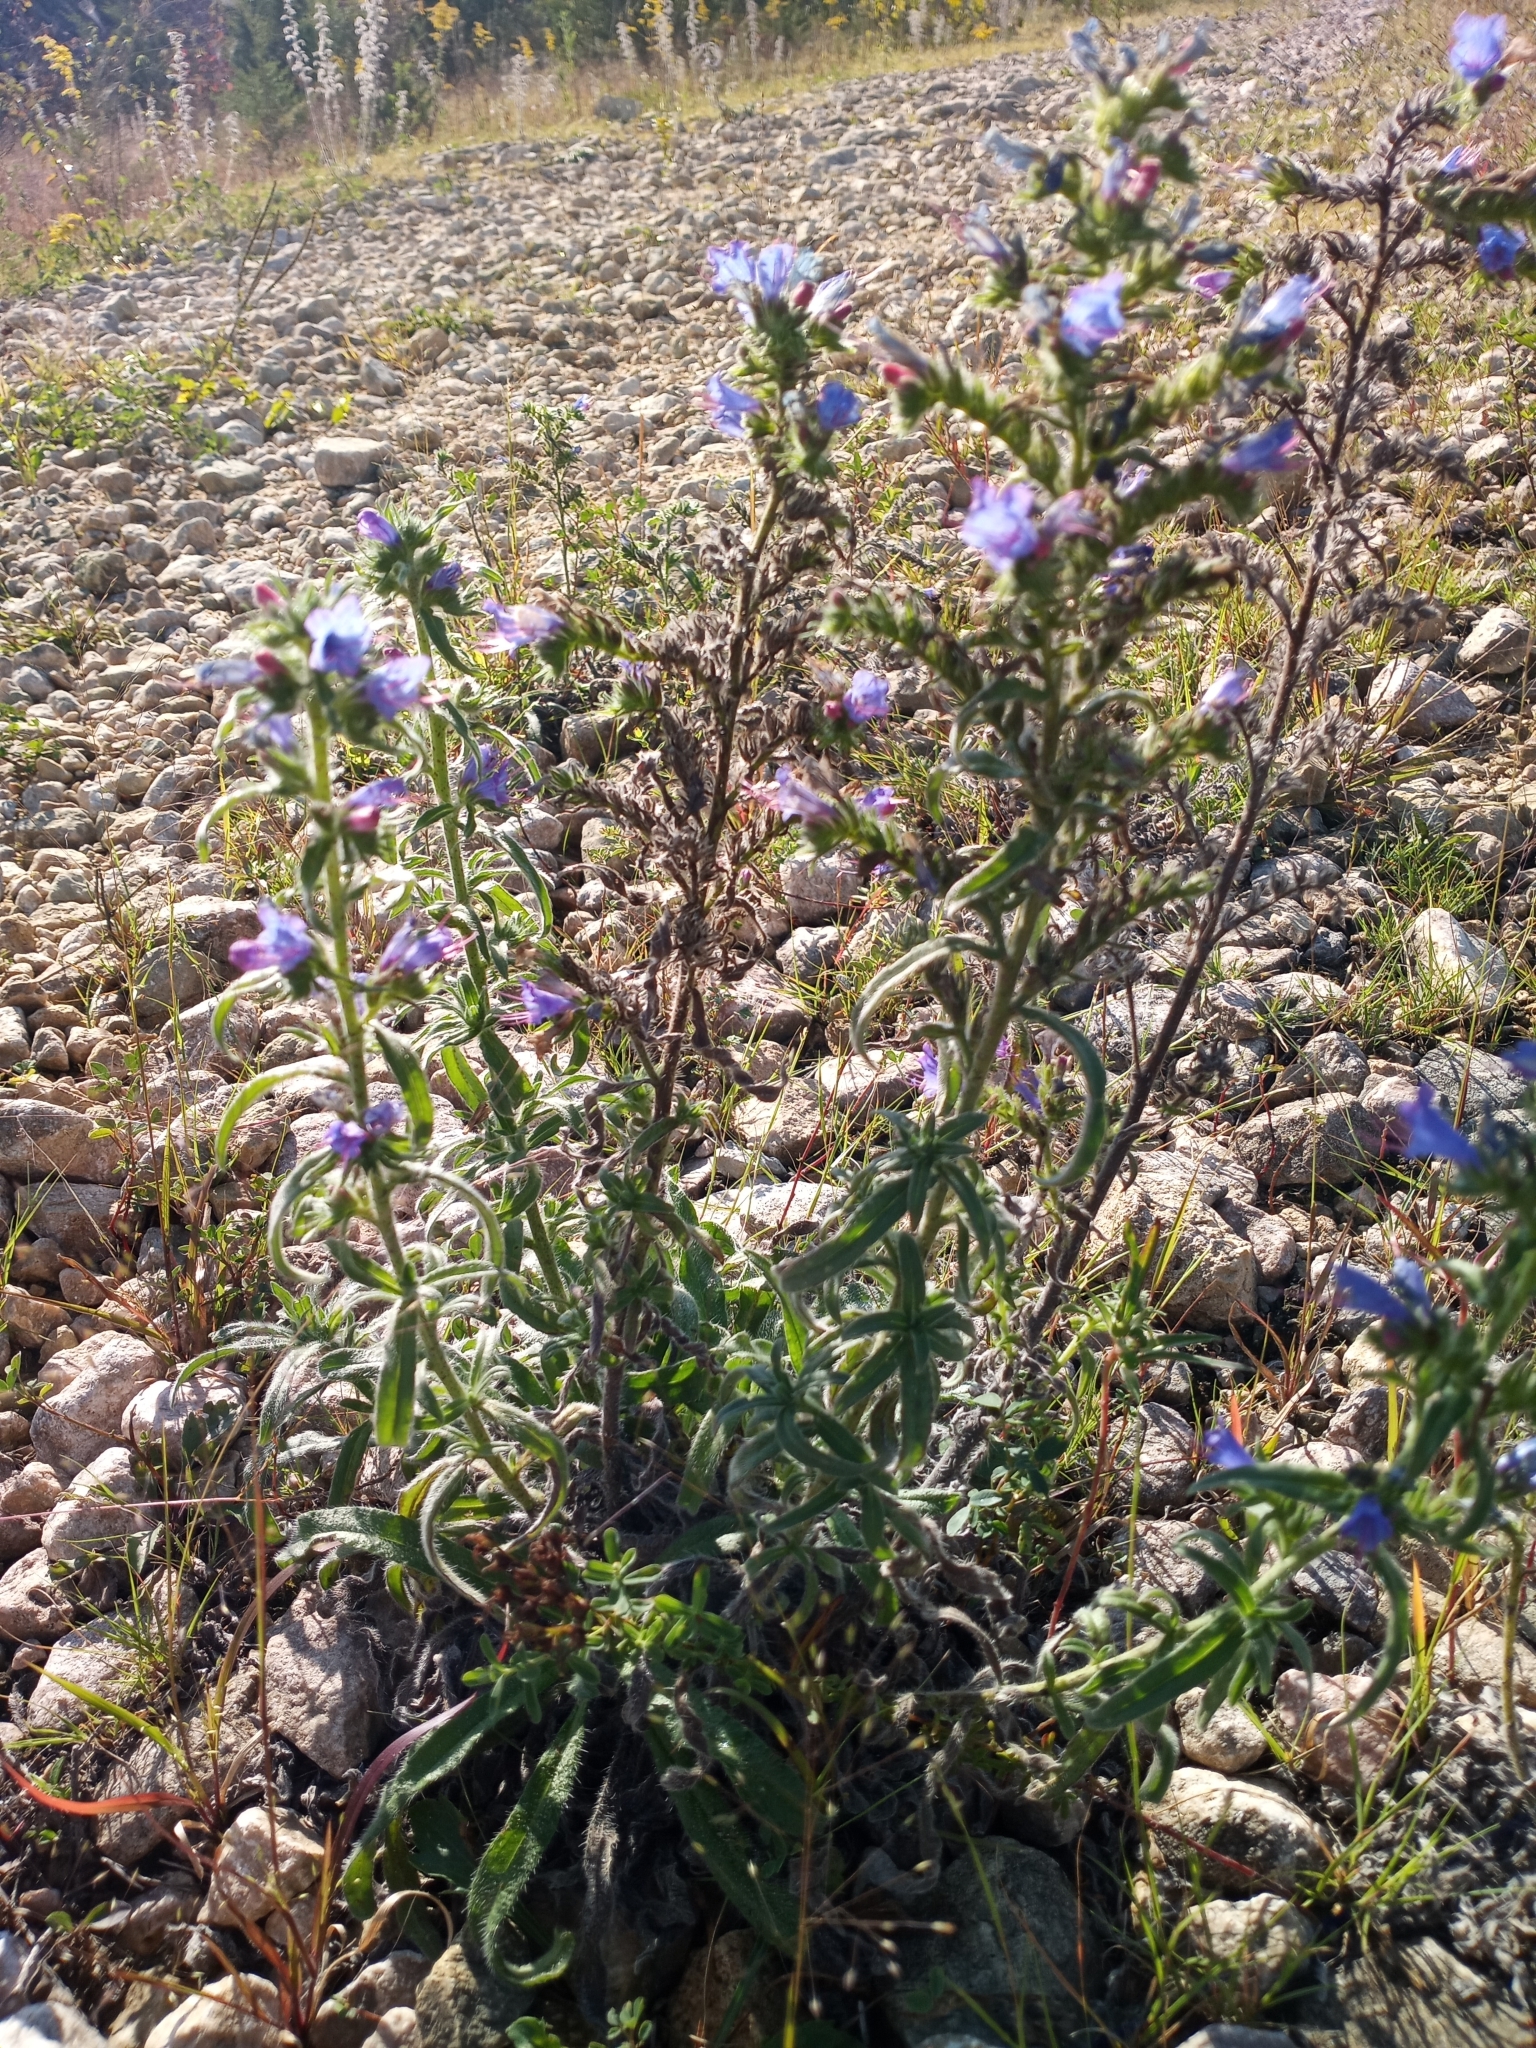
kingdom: Plantae
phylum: Tracheophyta
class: Magnoliopsida
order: Boraginales
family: Boraginaceae
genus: Echium
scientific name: Echium vulgare
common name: Common viper's bugloss
